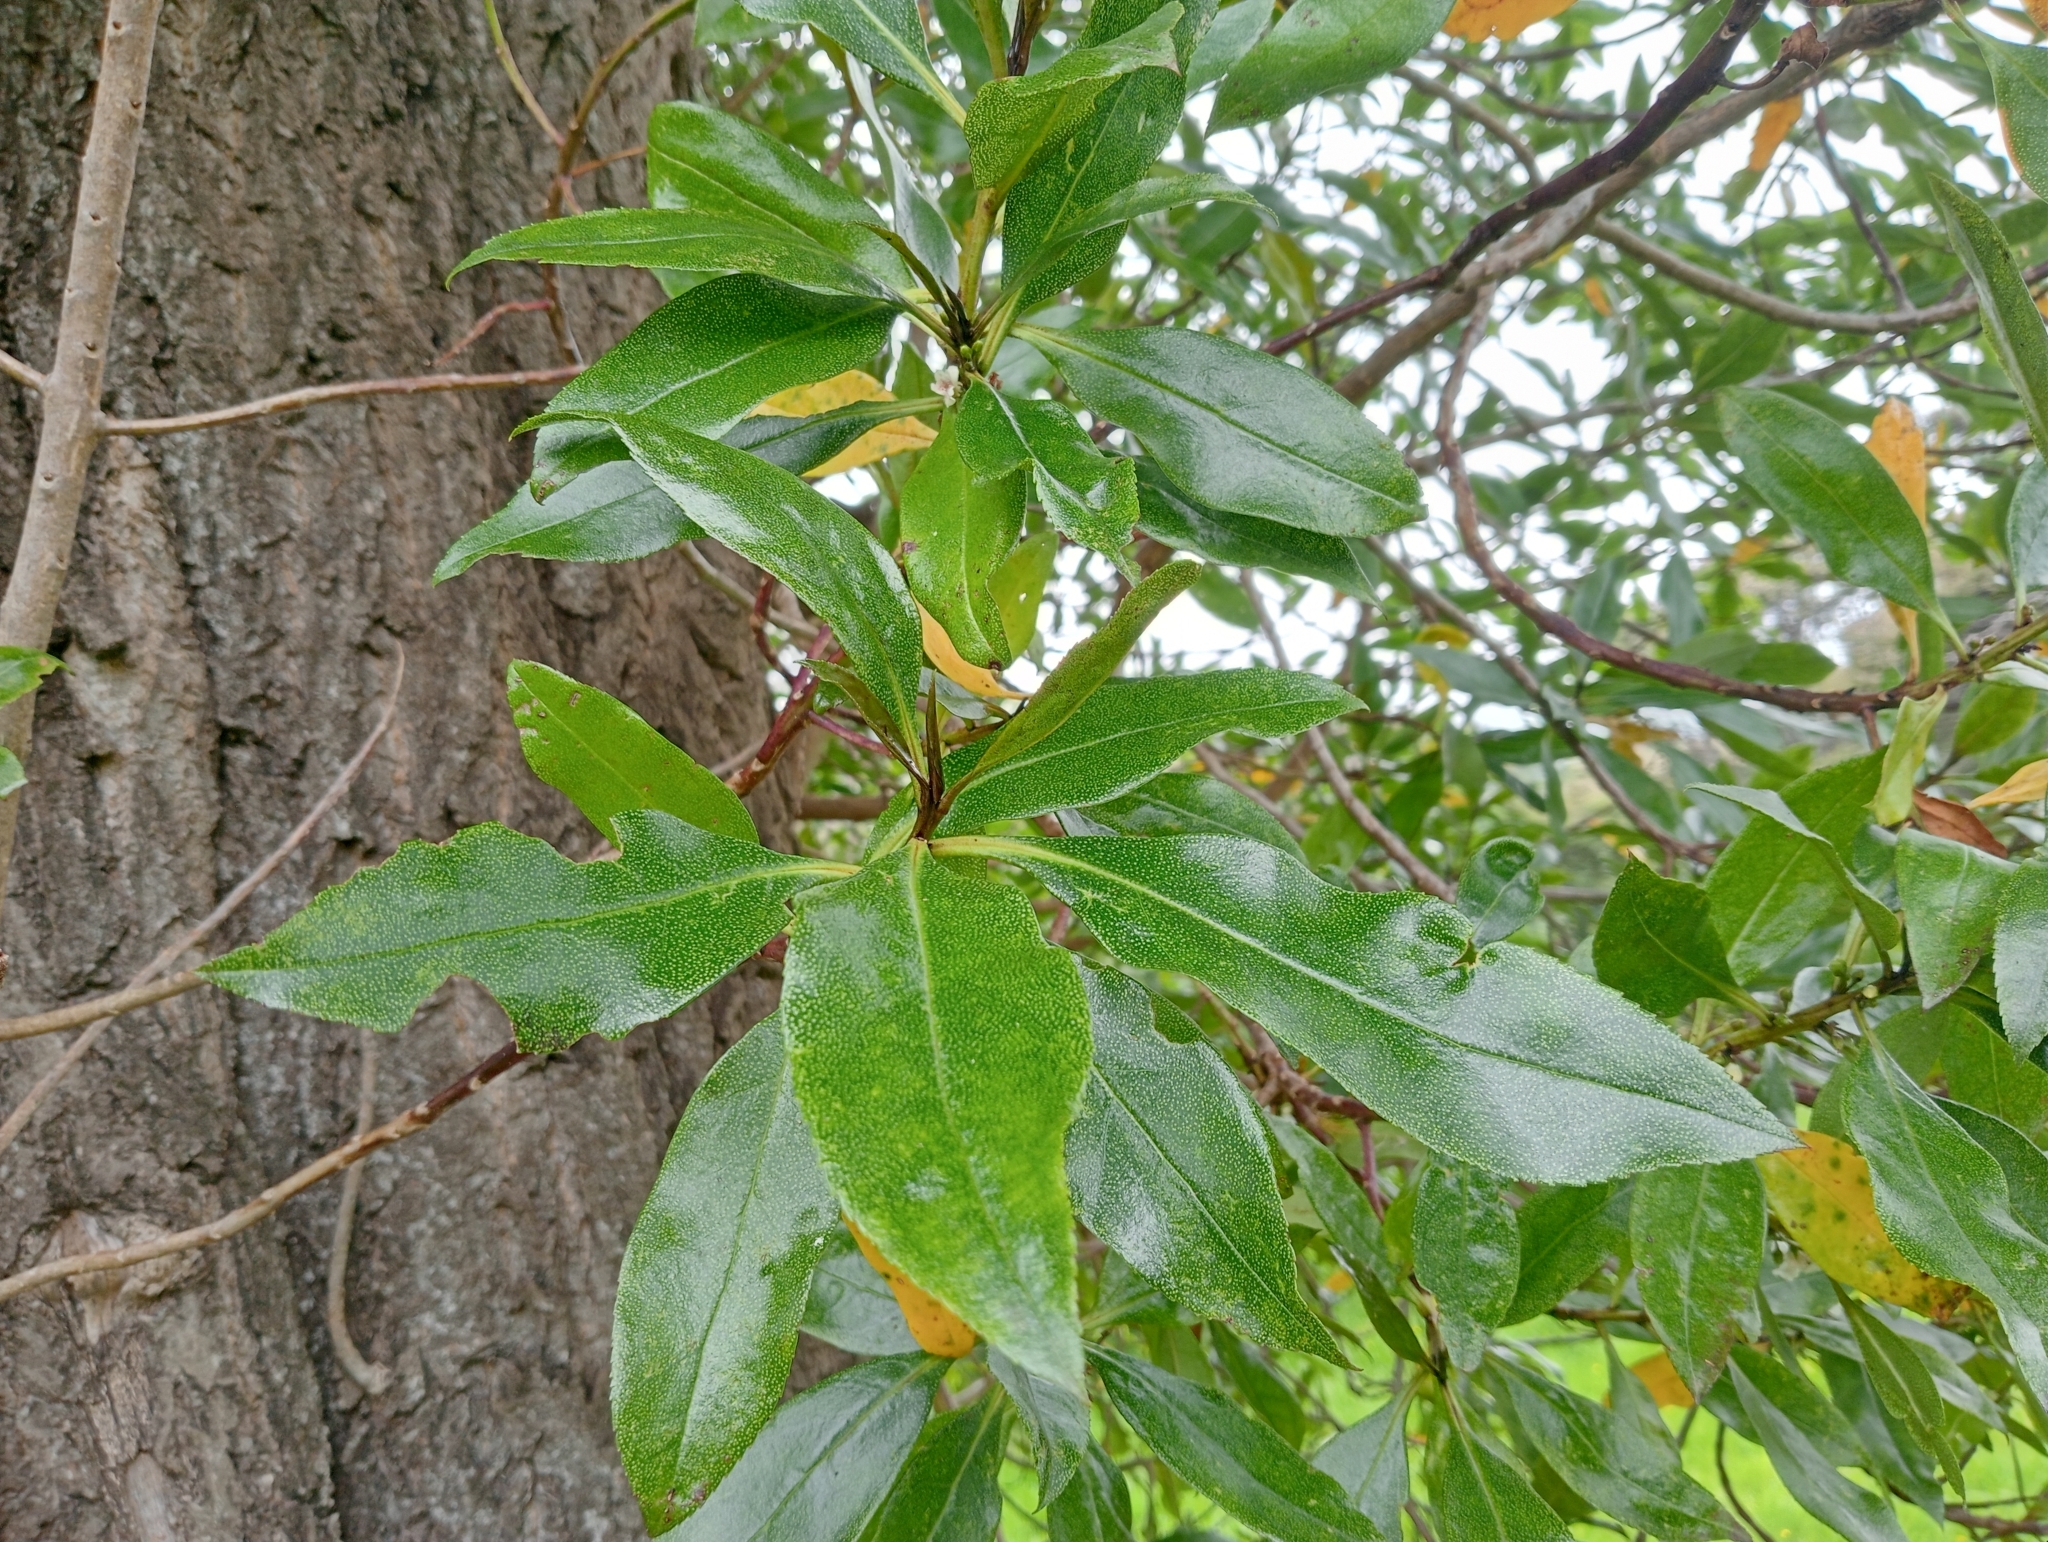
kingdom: Plantae
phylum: Tracheophyta
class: Magnoliopsida
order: Lamiales
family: Scrophulariaceae
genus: Myoporum
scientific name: Myoporum laetum
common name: Ngaio tree
